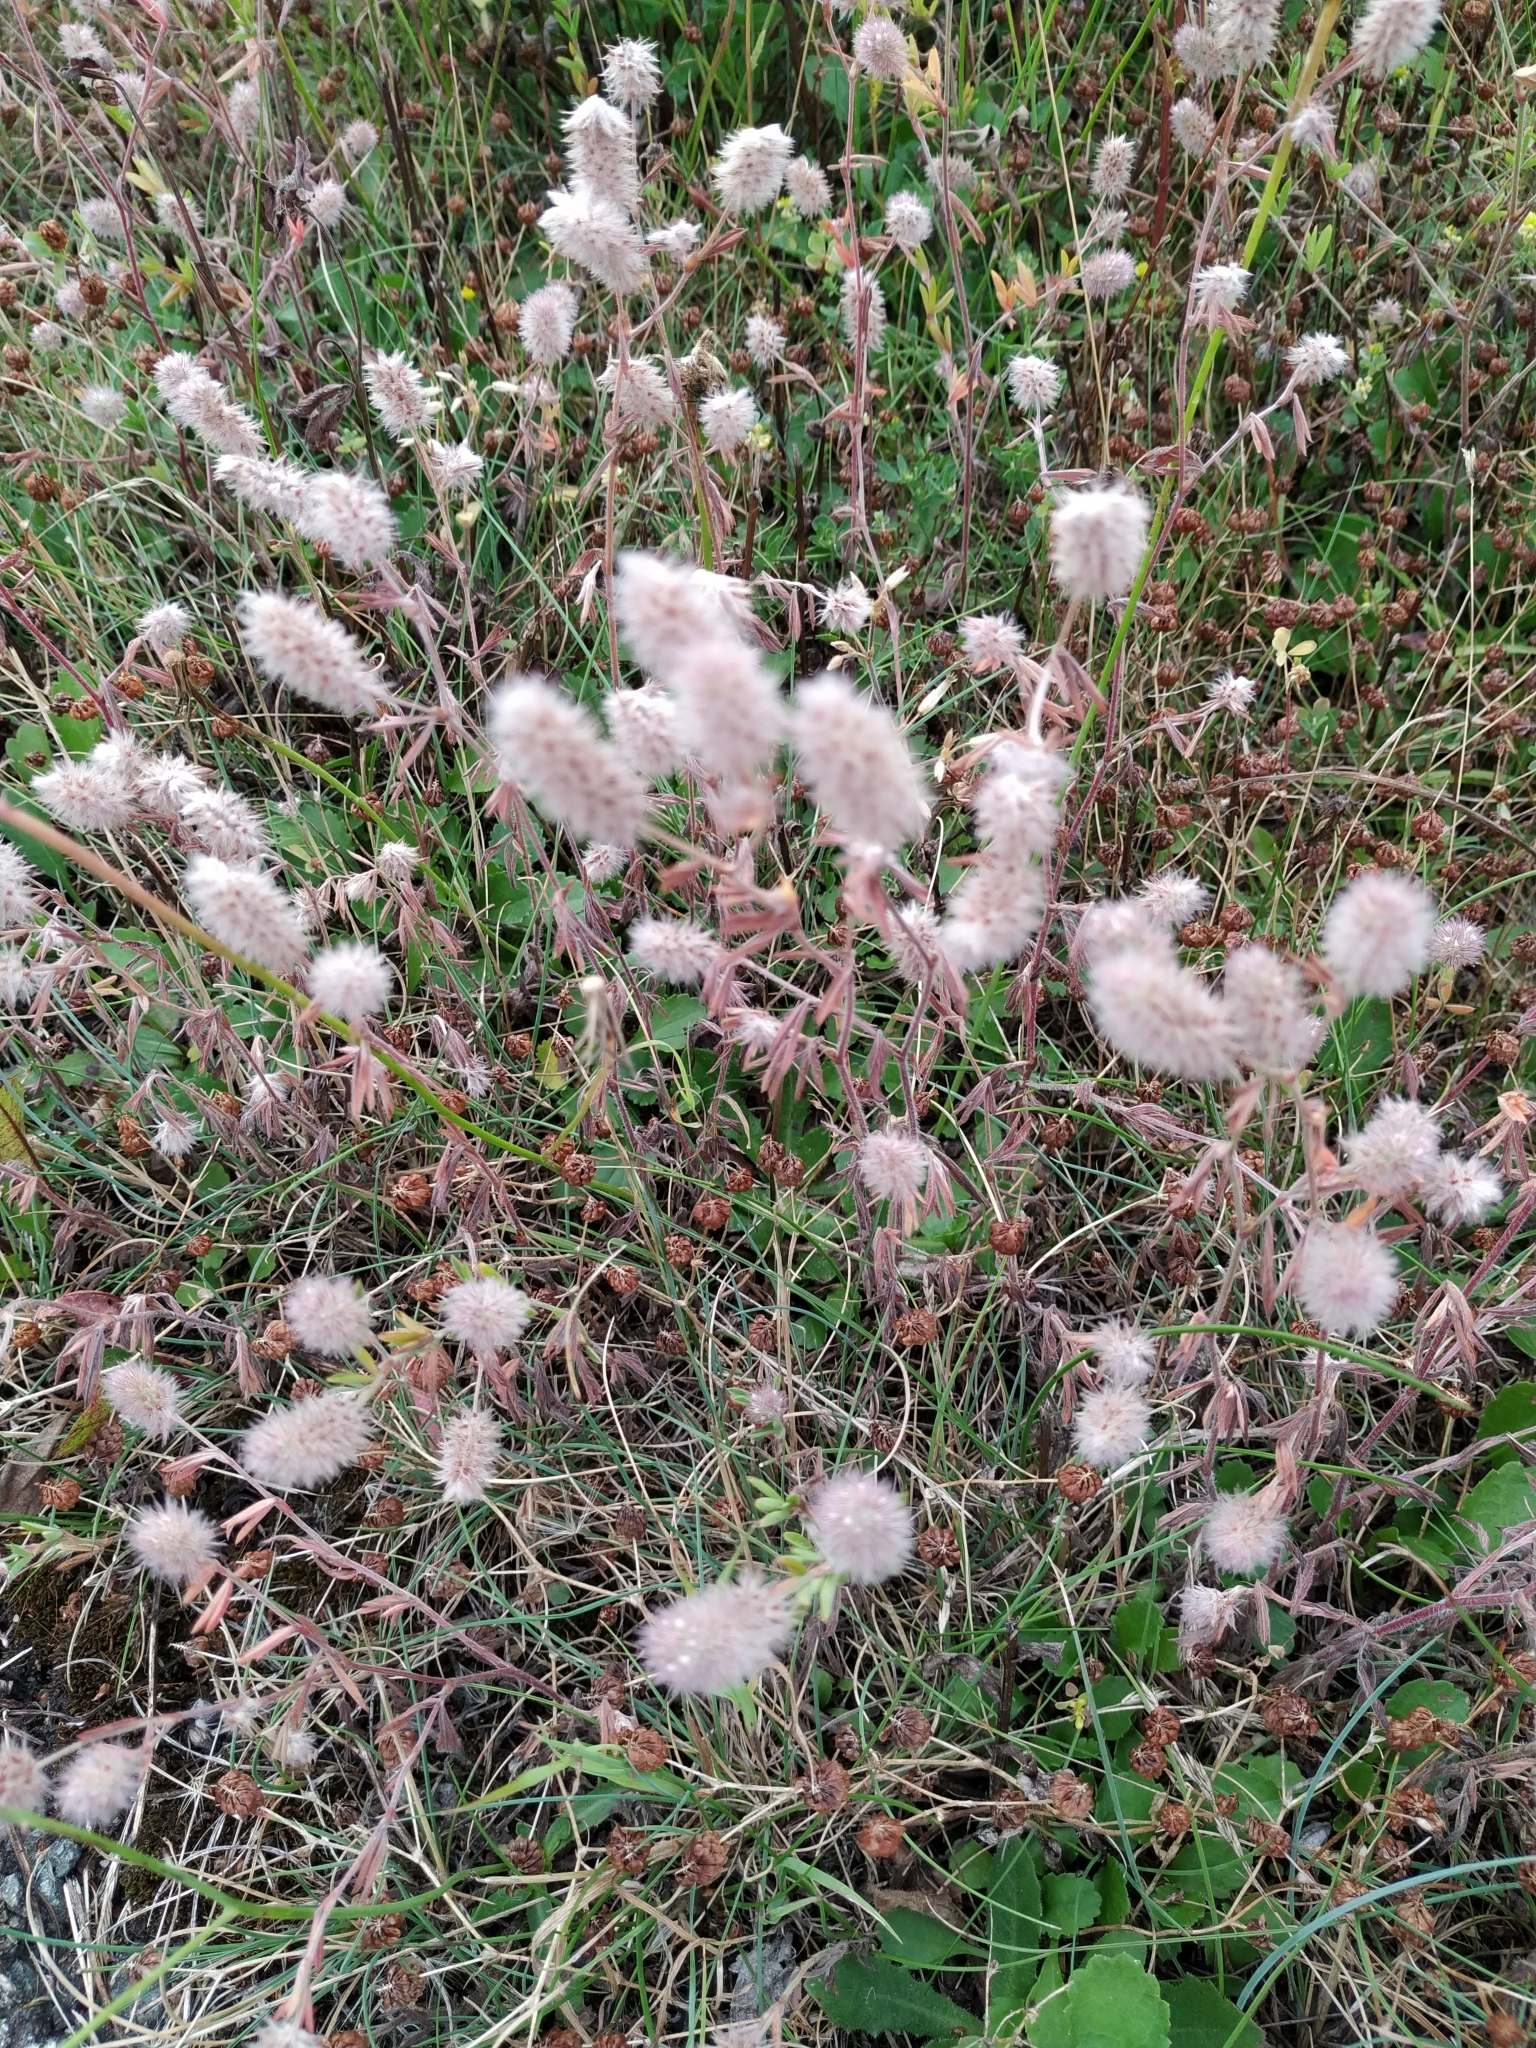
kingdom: Plantae
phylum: Tracheophyta
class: Magnoliopsida
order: Fabales
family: Fabaceae
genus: Trifolium
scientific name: Trifolium arvense
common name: Hare's-foot clover
